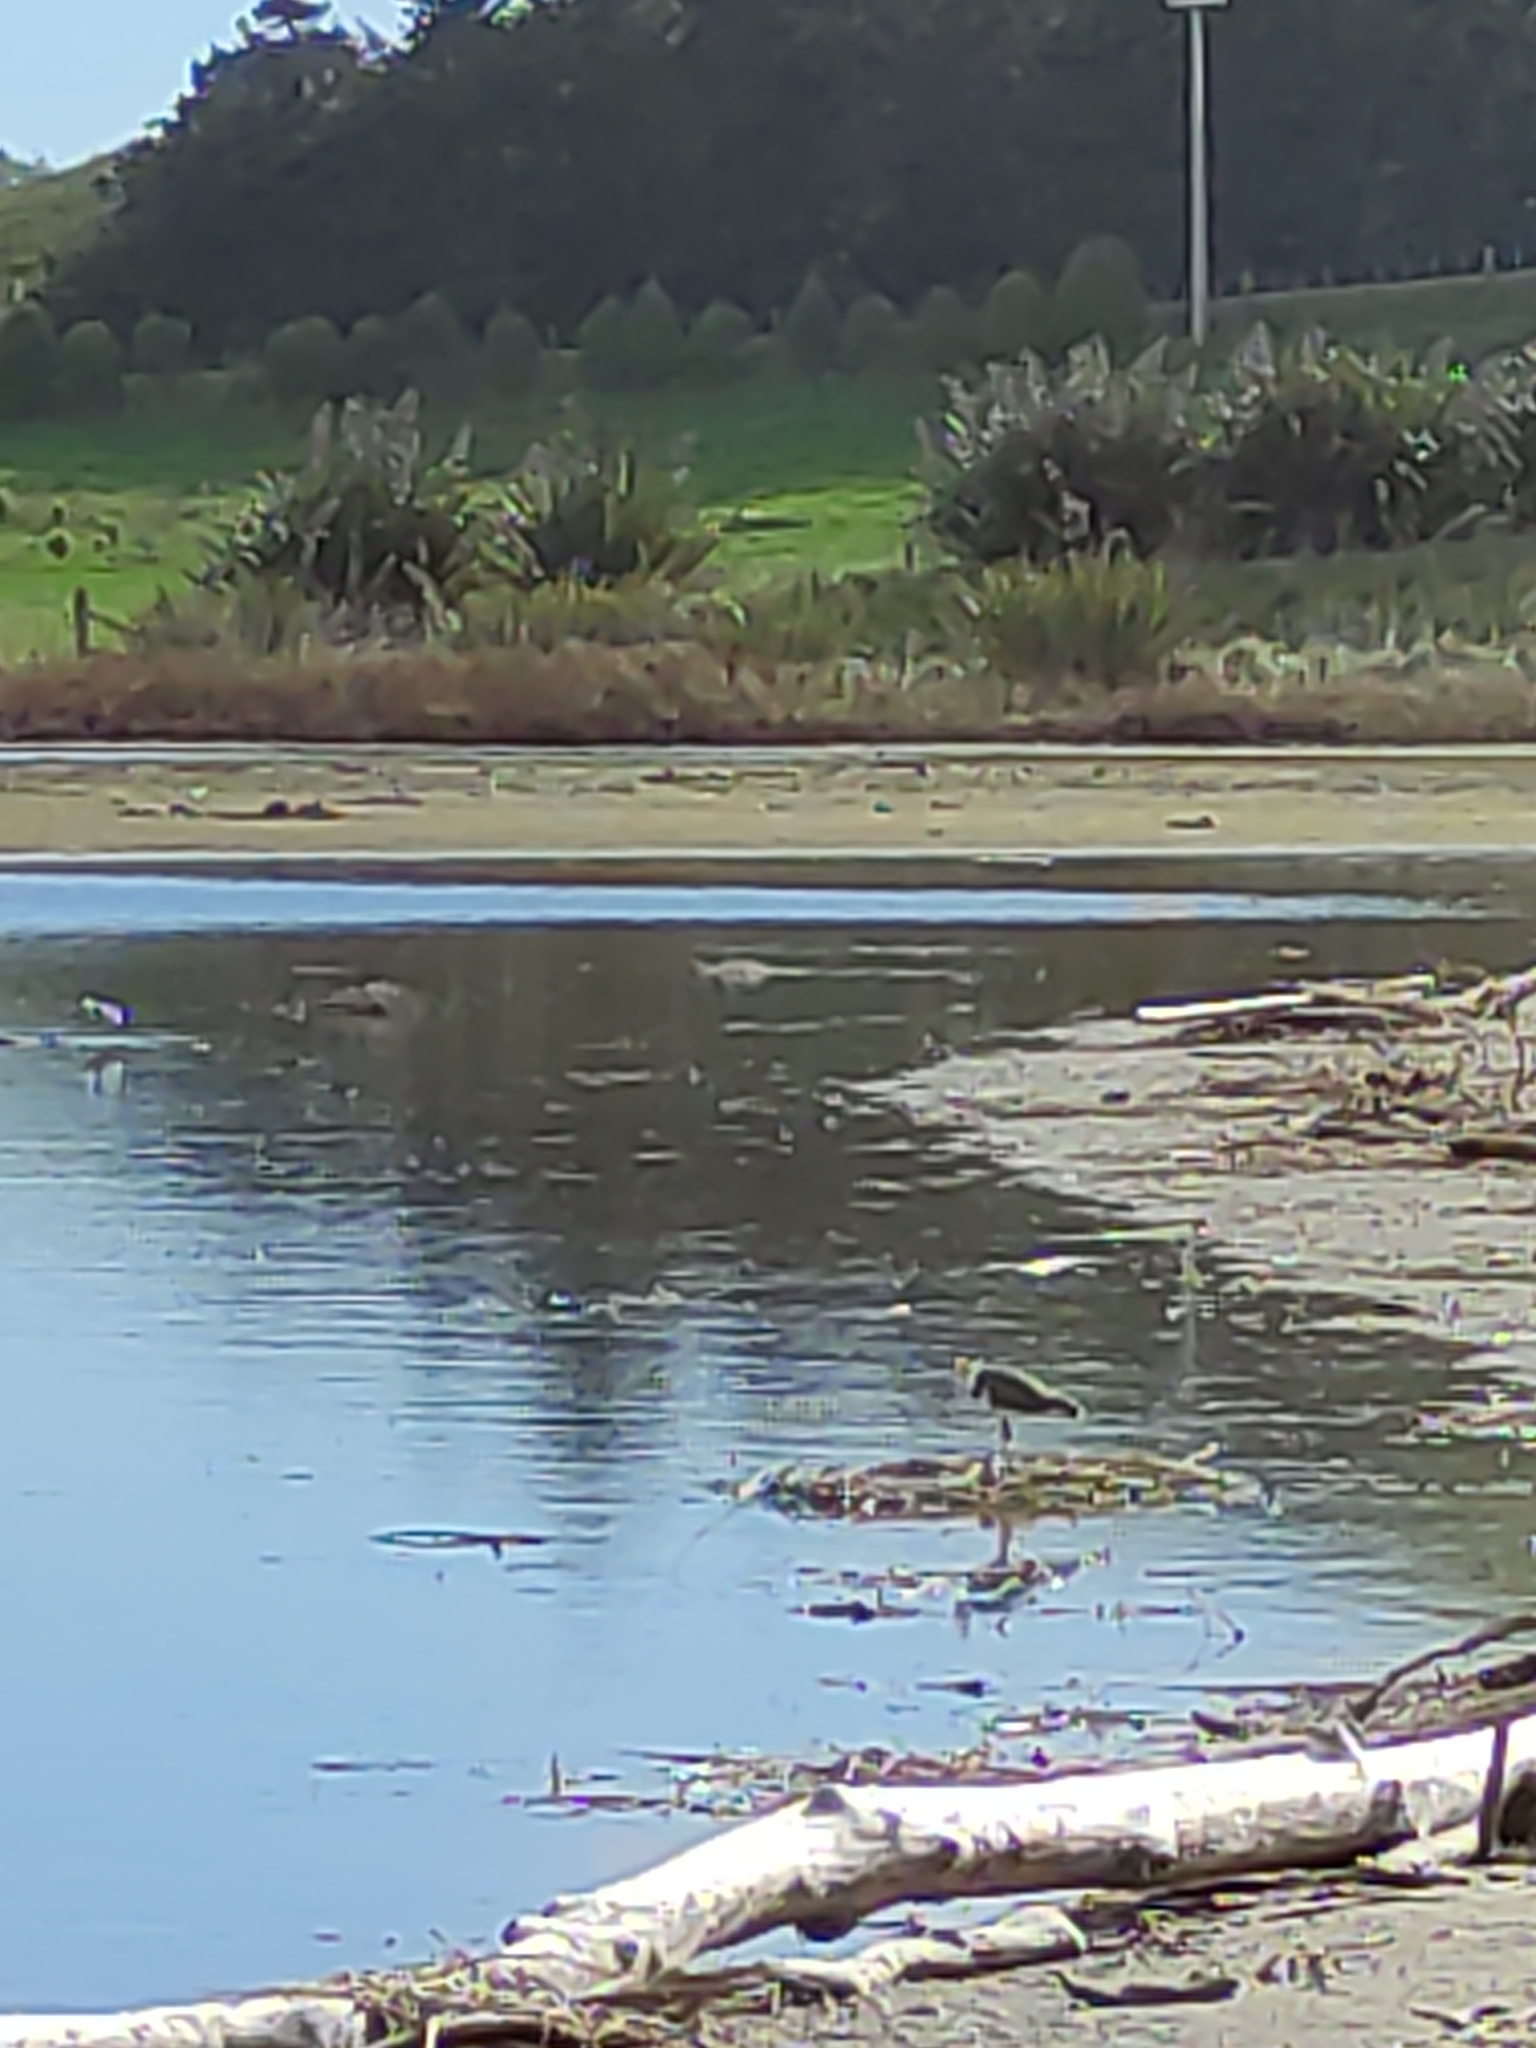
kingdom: Animalia
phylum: Chordata
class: Aves
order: Charadriiformes
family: Charadriidae
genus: Vanellus
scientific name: Vanellus miles
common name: Masked lapwing
